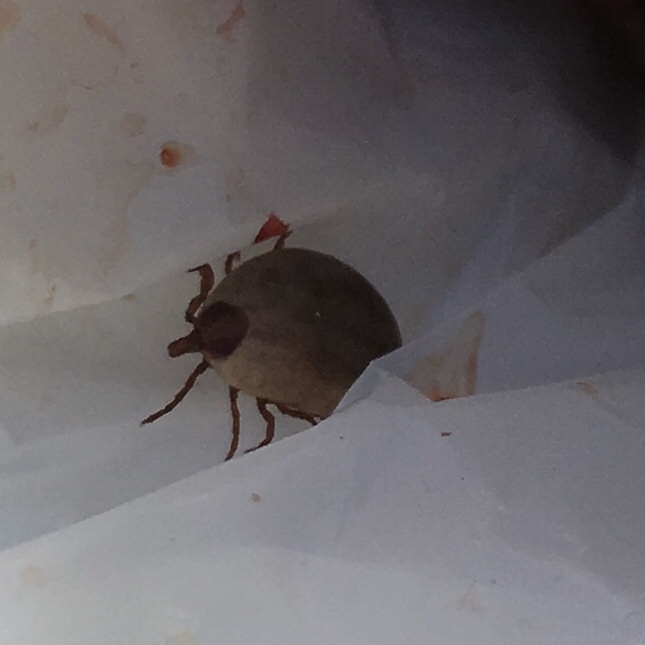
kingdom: Animalia
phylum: Arthropoda
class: Arachnida
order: Ixodida
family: Ixodidae
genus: Amblyomma
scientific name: Amblyomma auricularium
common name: Lone star tick
